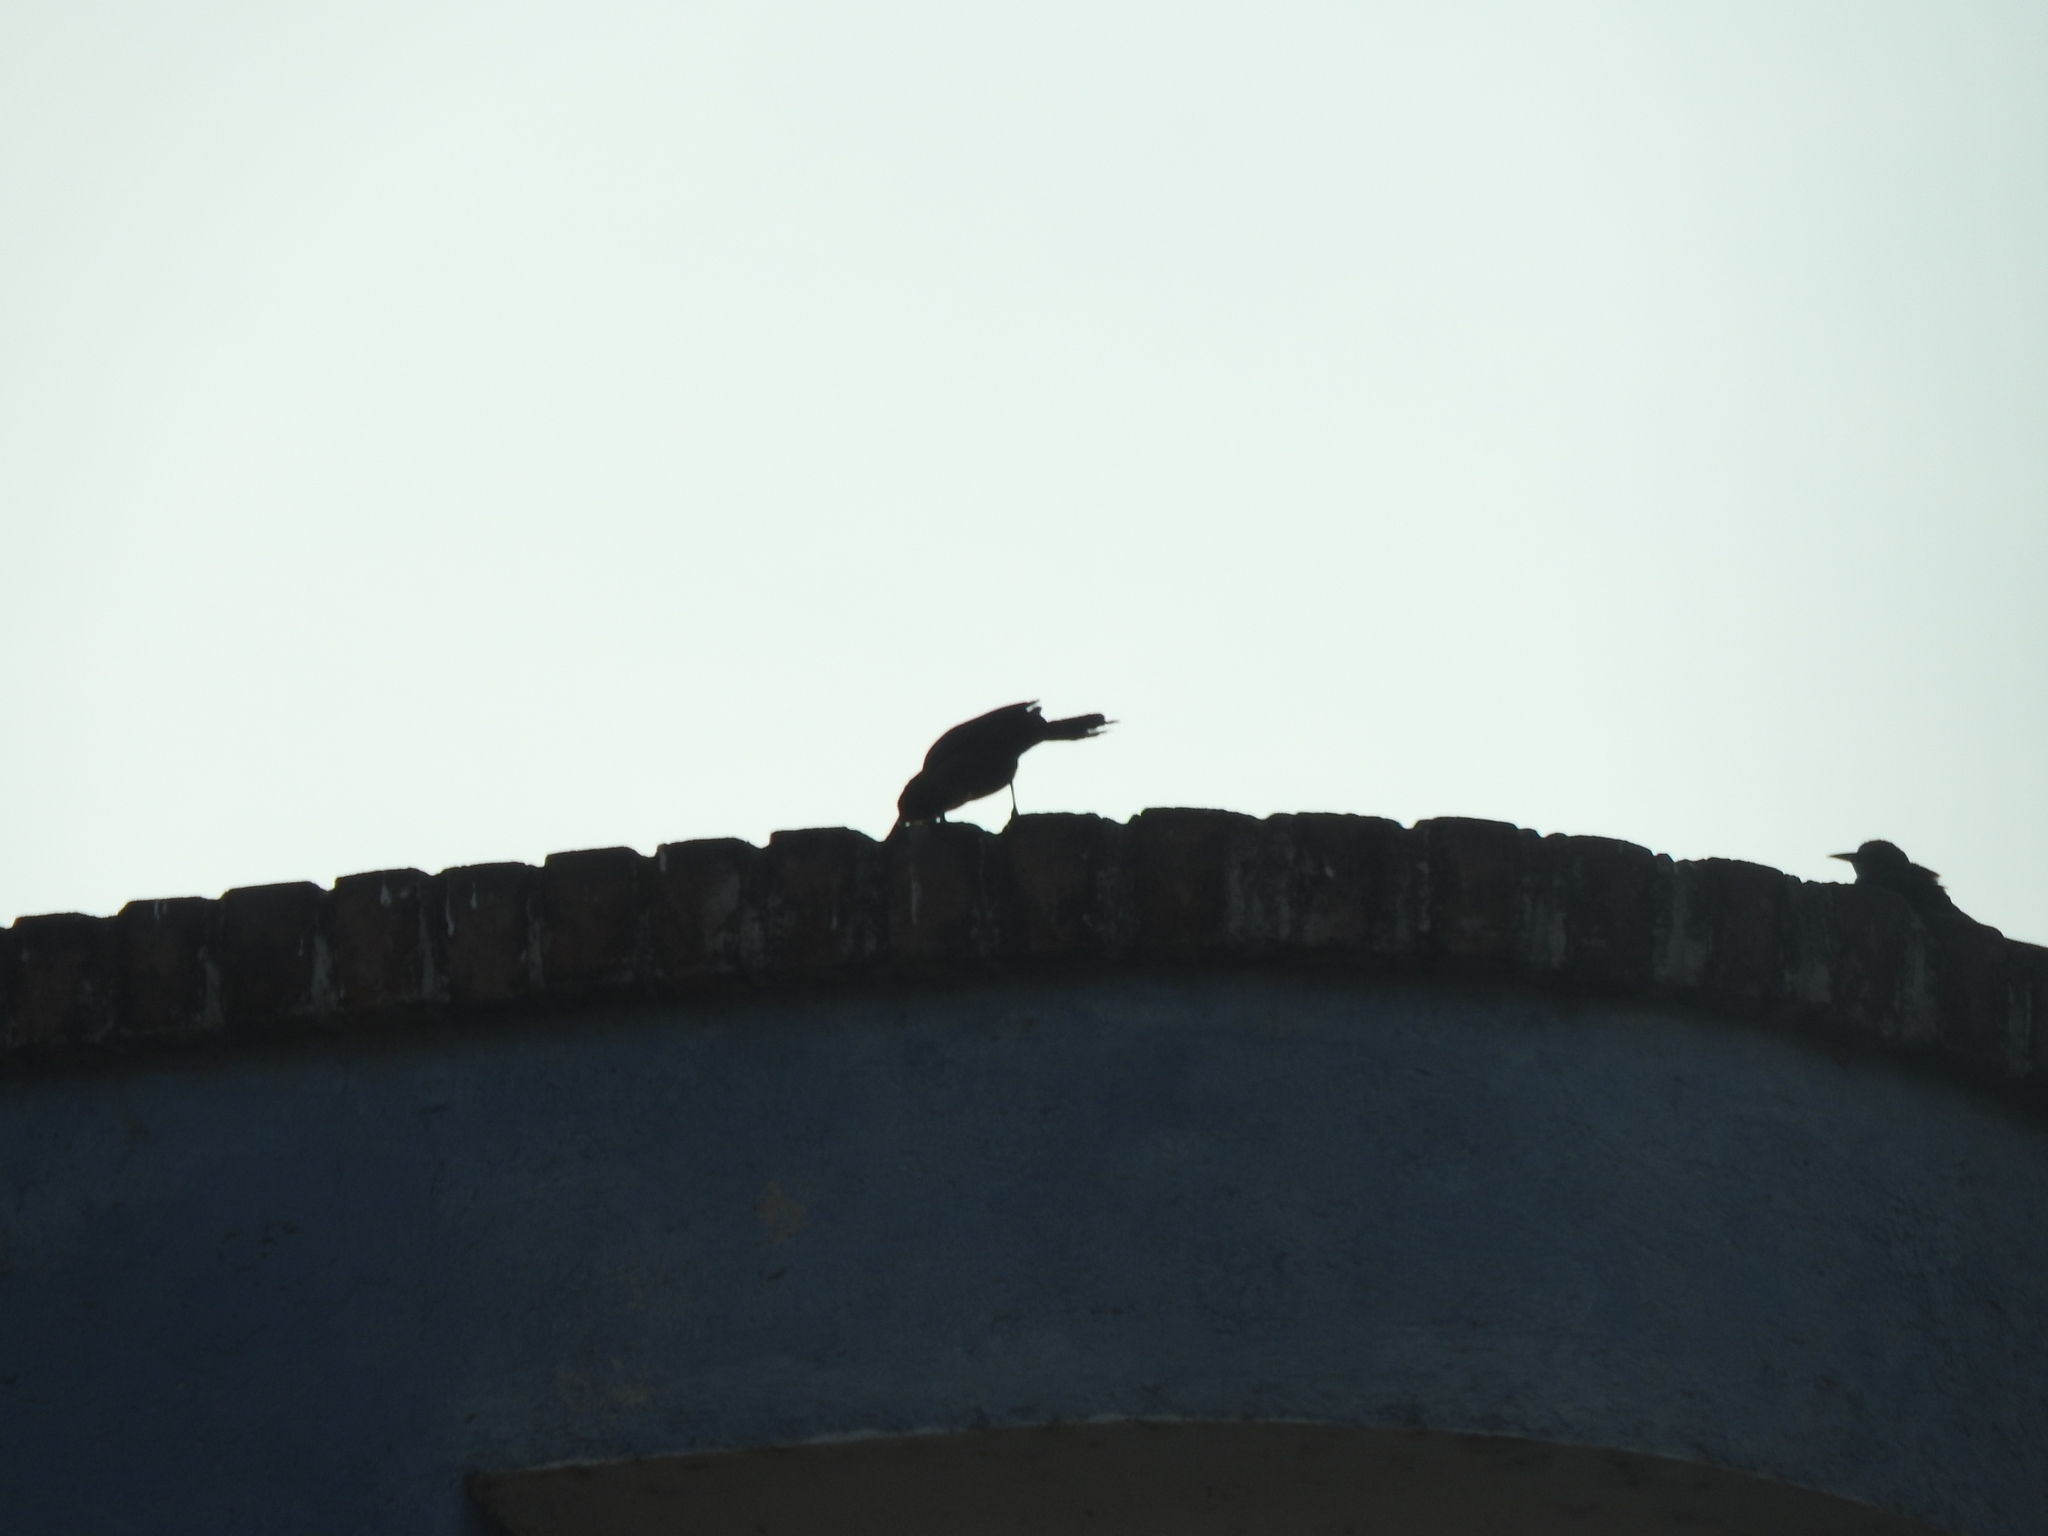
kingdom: Animalia
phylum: Chordata
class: Aves
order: Passeriformes
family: Icteridae
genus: Quiscalus
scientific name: Quiscalus mexicanus
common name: Great-tailed grackle
